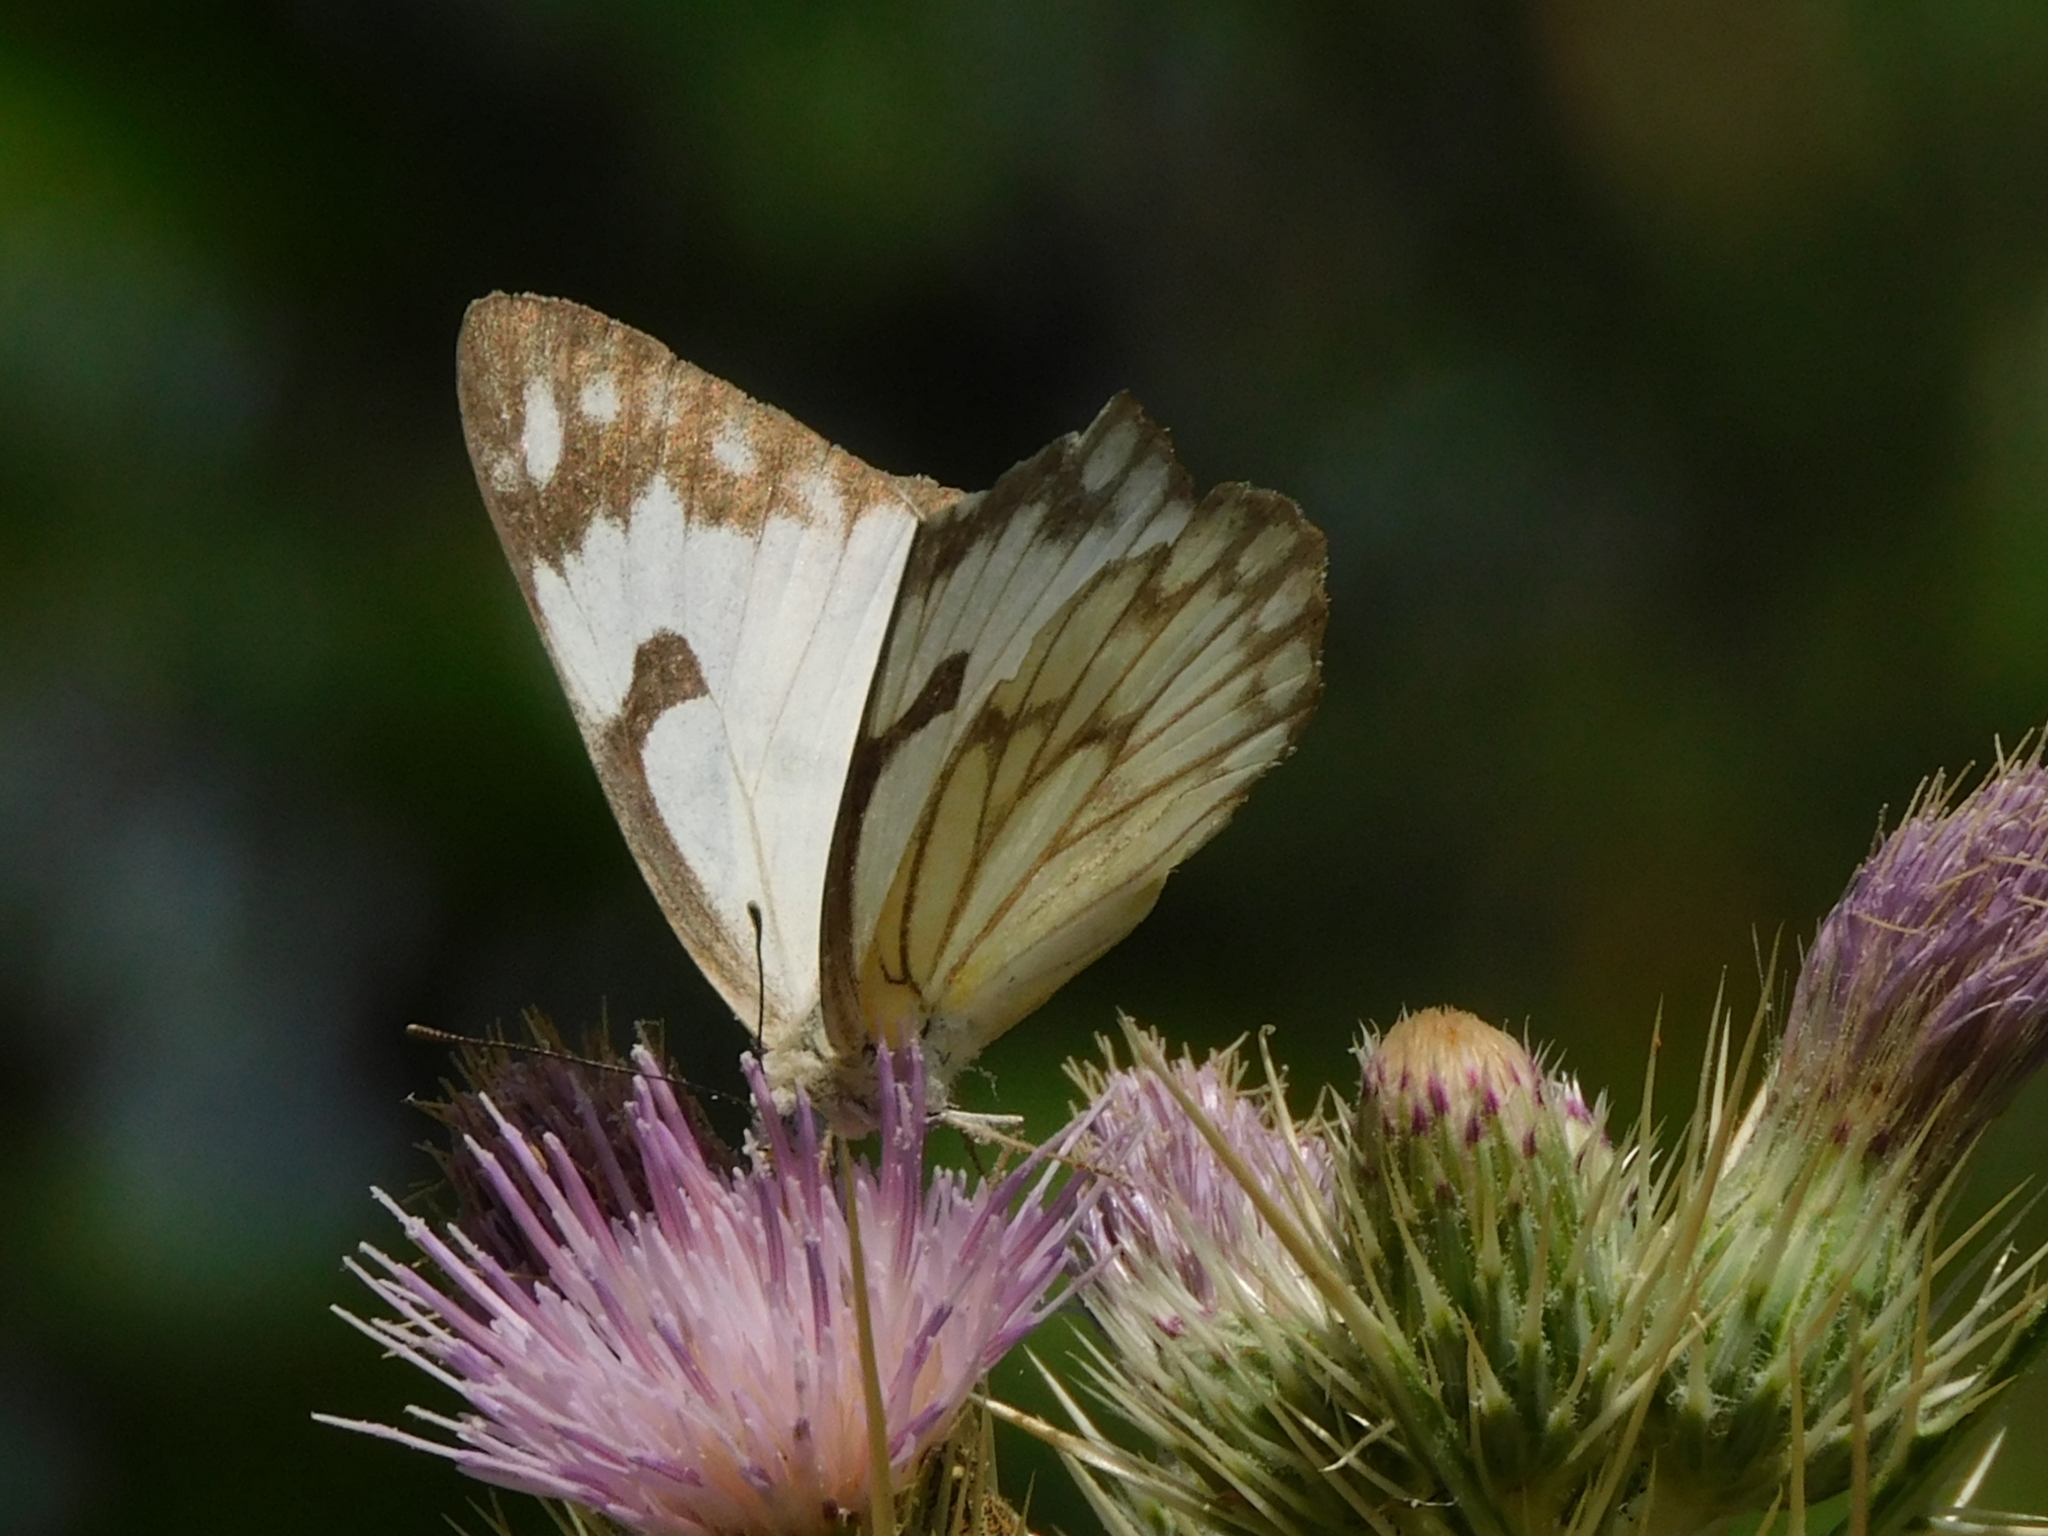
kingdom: Animalia
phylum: Arthropoda
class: Insecta
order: Lepidoptera
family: Pieridae
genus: Belenois
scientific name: Belenois aurota
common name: Brown-veined white
